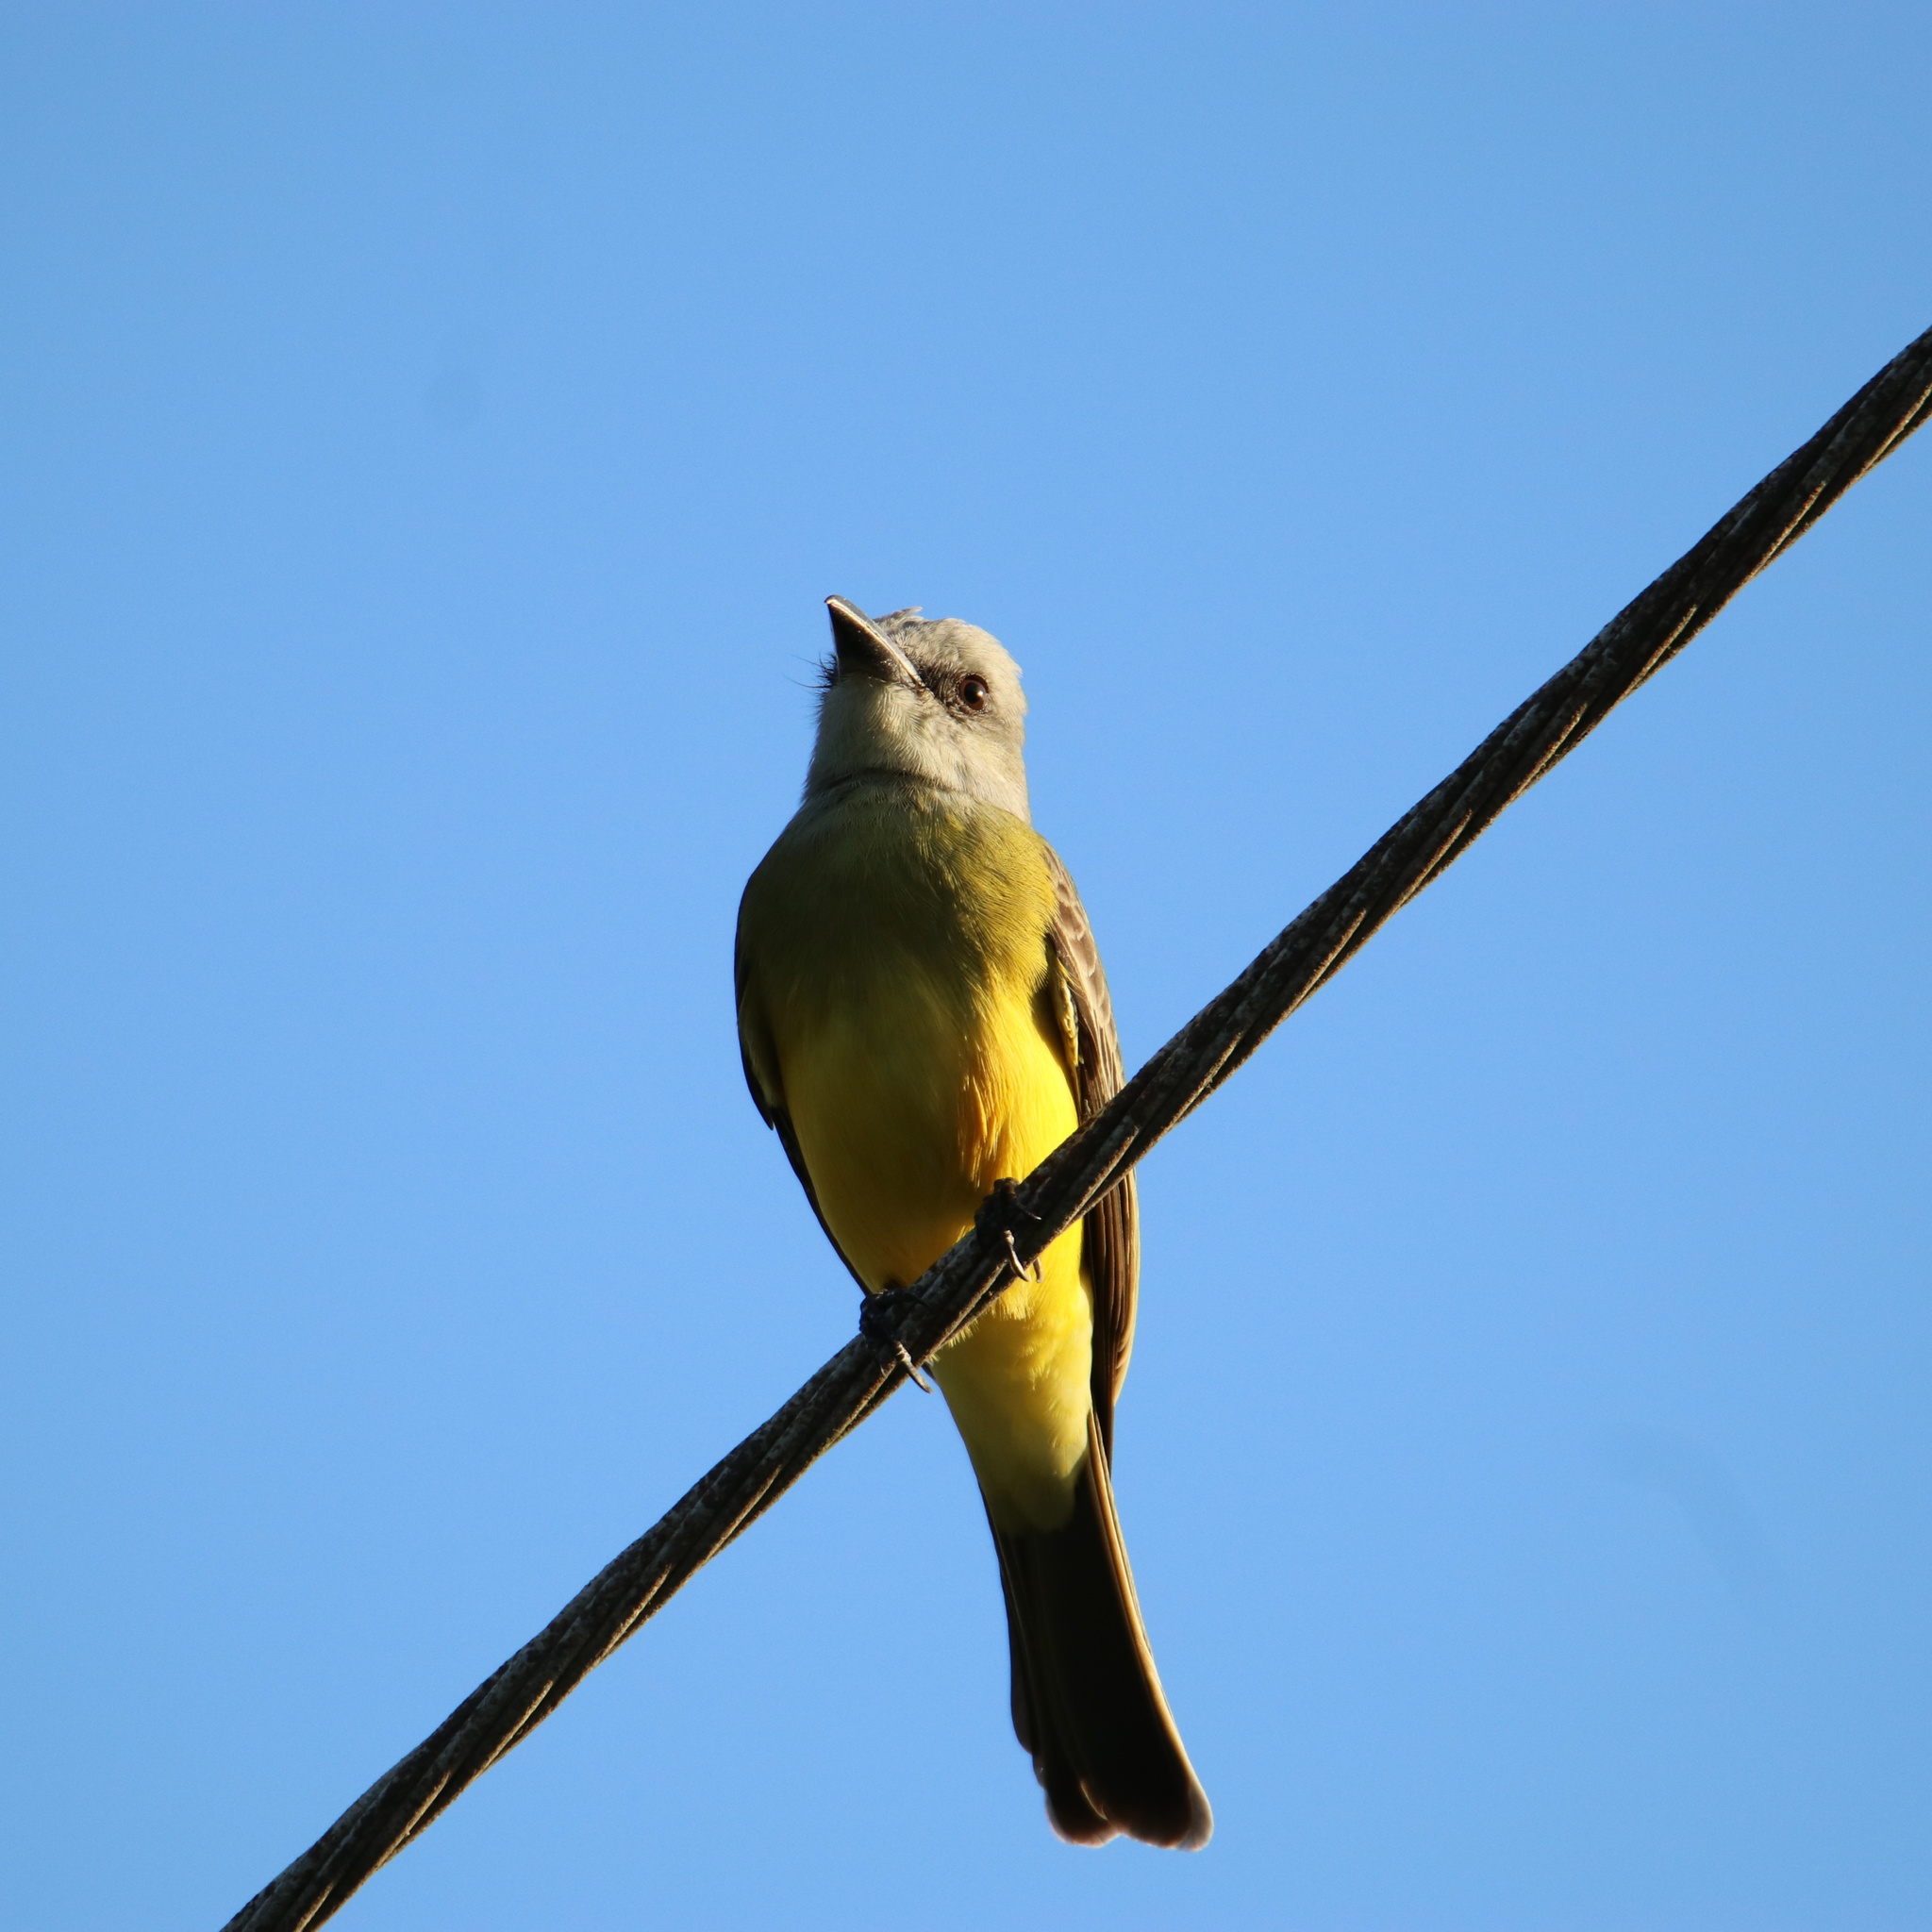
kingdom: Animalia
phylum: Chordata
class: Aves
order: Passeriformes
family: Tyrannidae
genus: Tyrannus
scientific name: Tyrannus melancholicus
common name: Tropical kingbird
